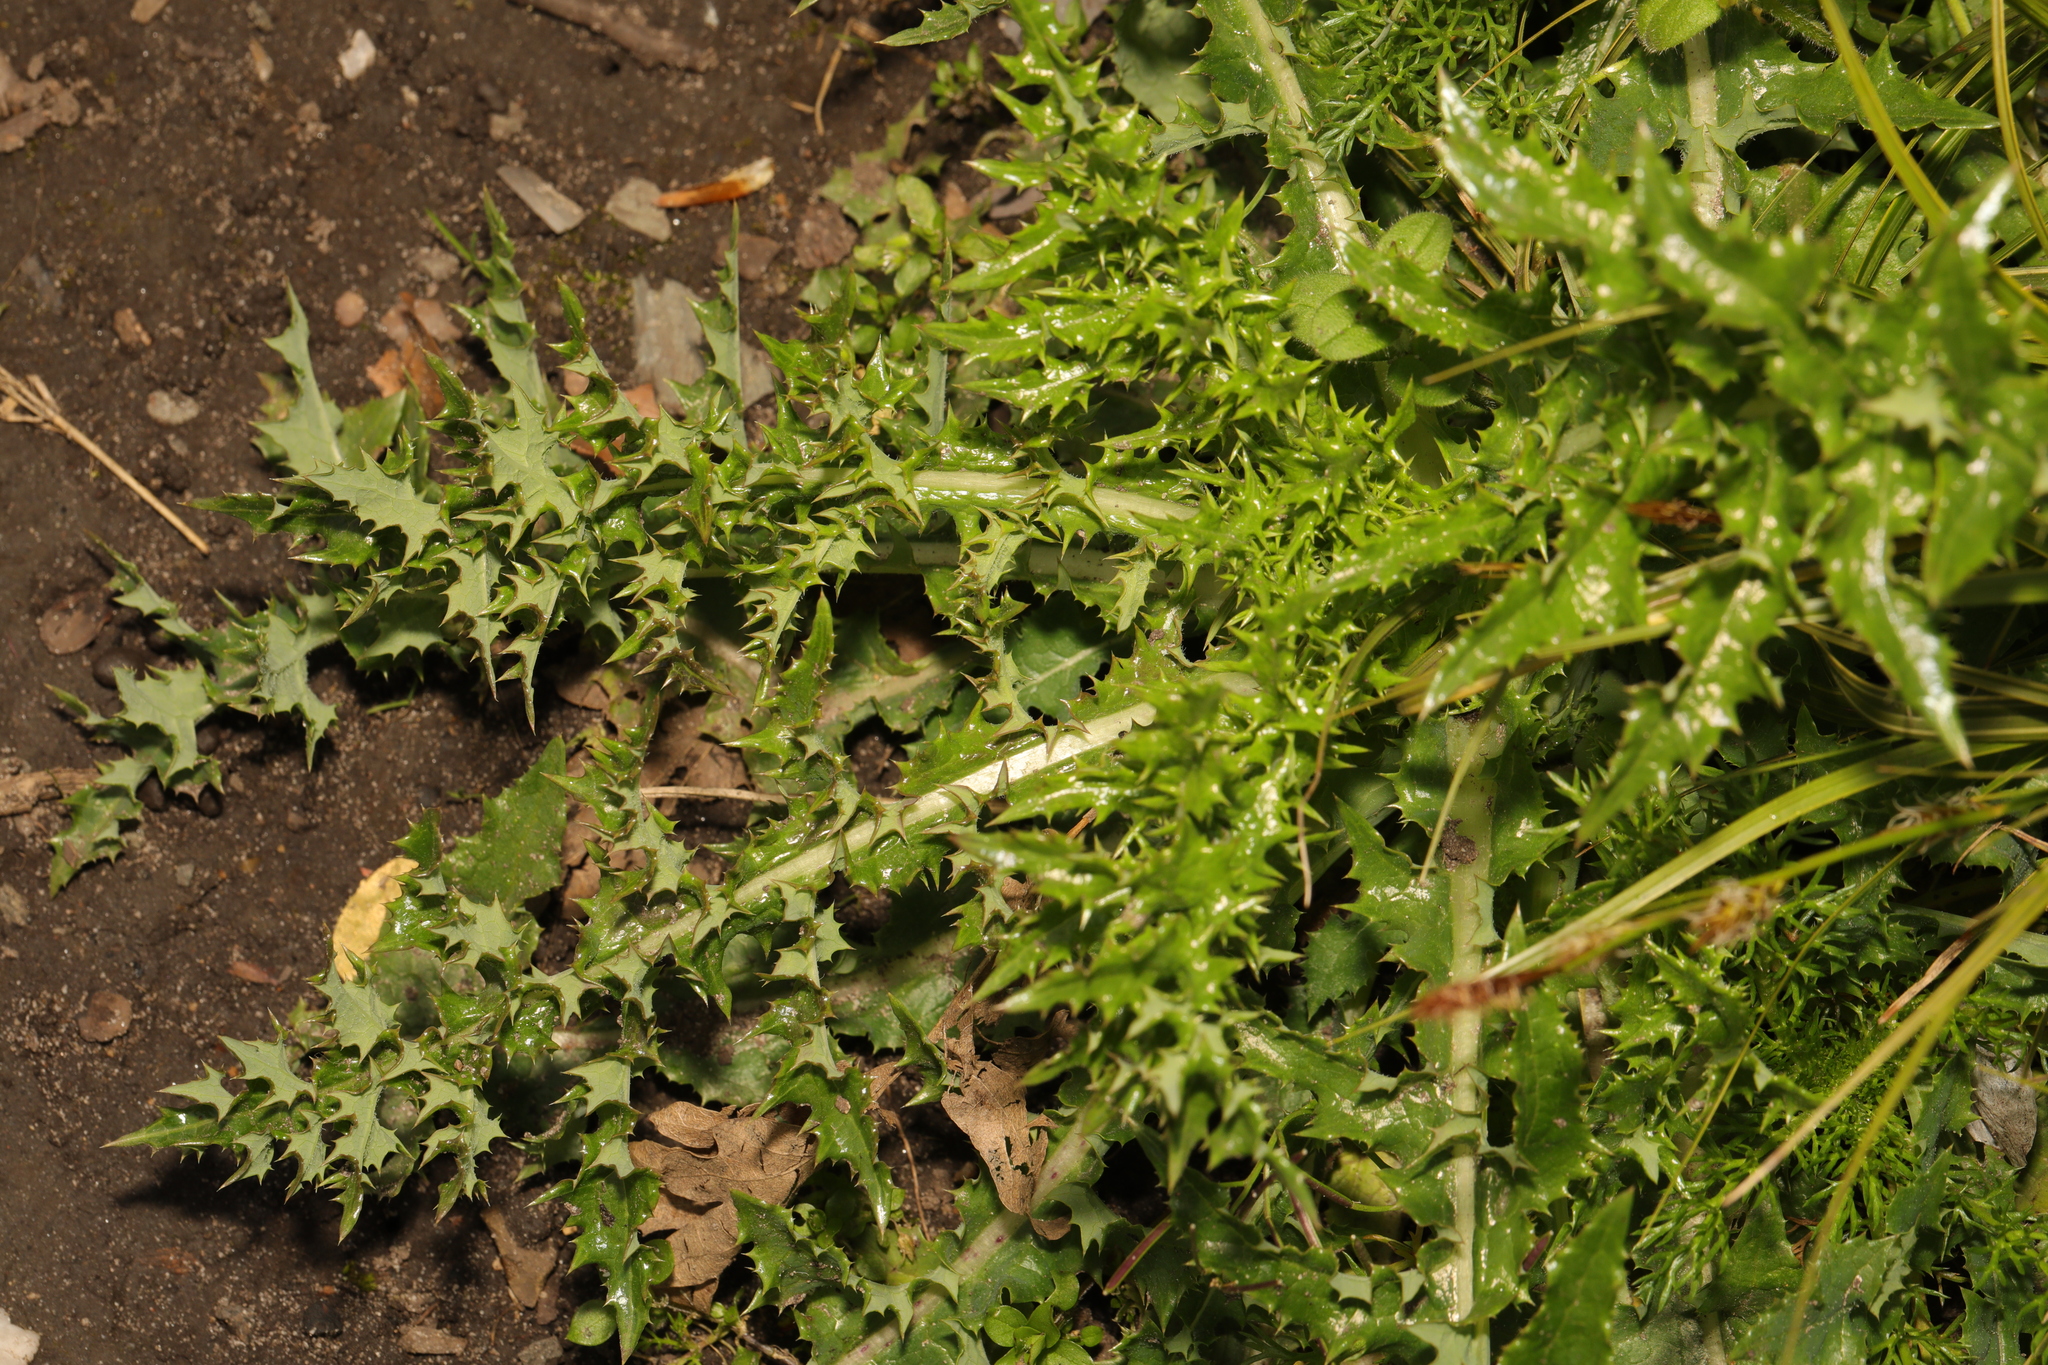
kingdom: Plantae
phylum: Tracheophyta
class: Magnoliopsida
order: Asterales
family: Asteraceae
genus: Sonchus
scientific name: Sonchus asper
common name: Prickly sow-thistle
